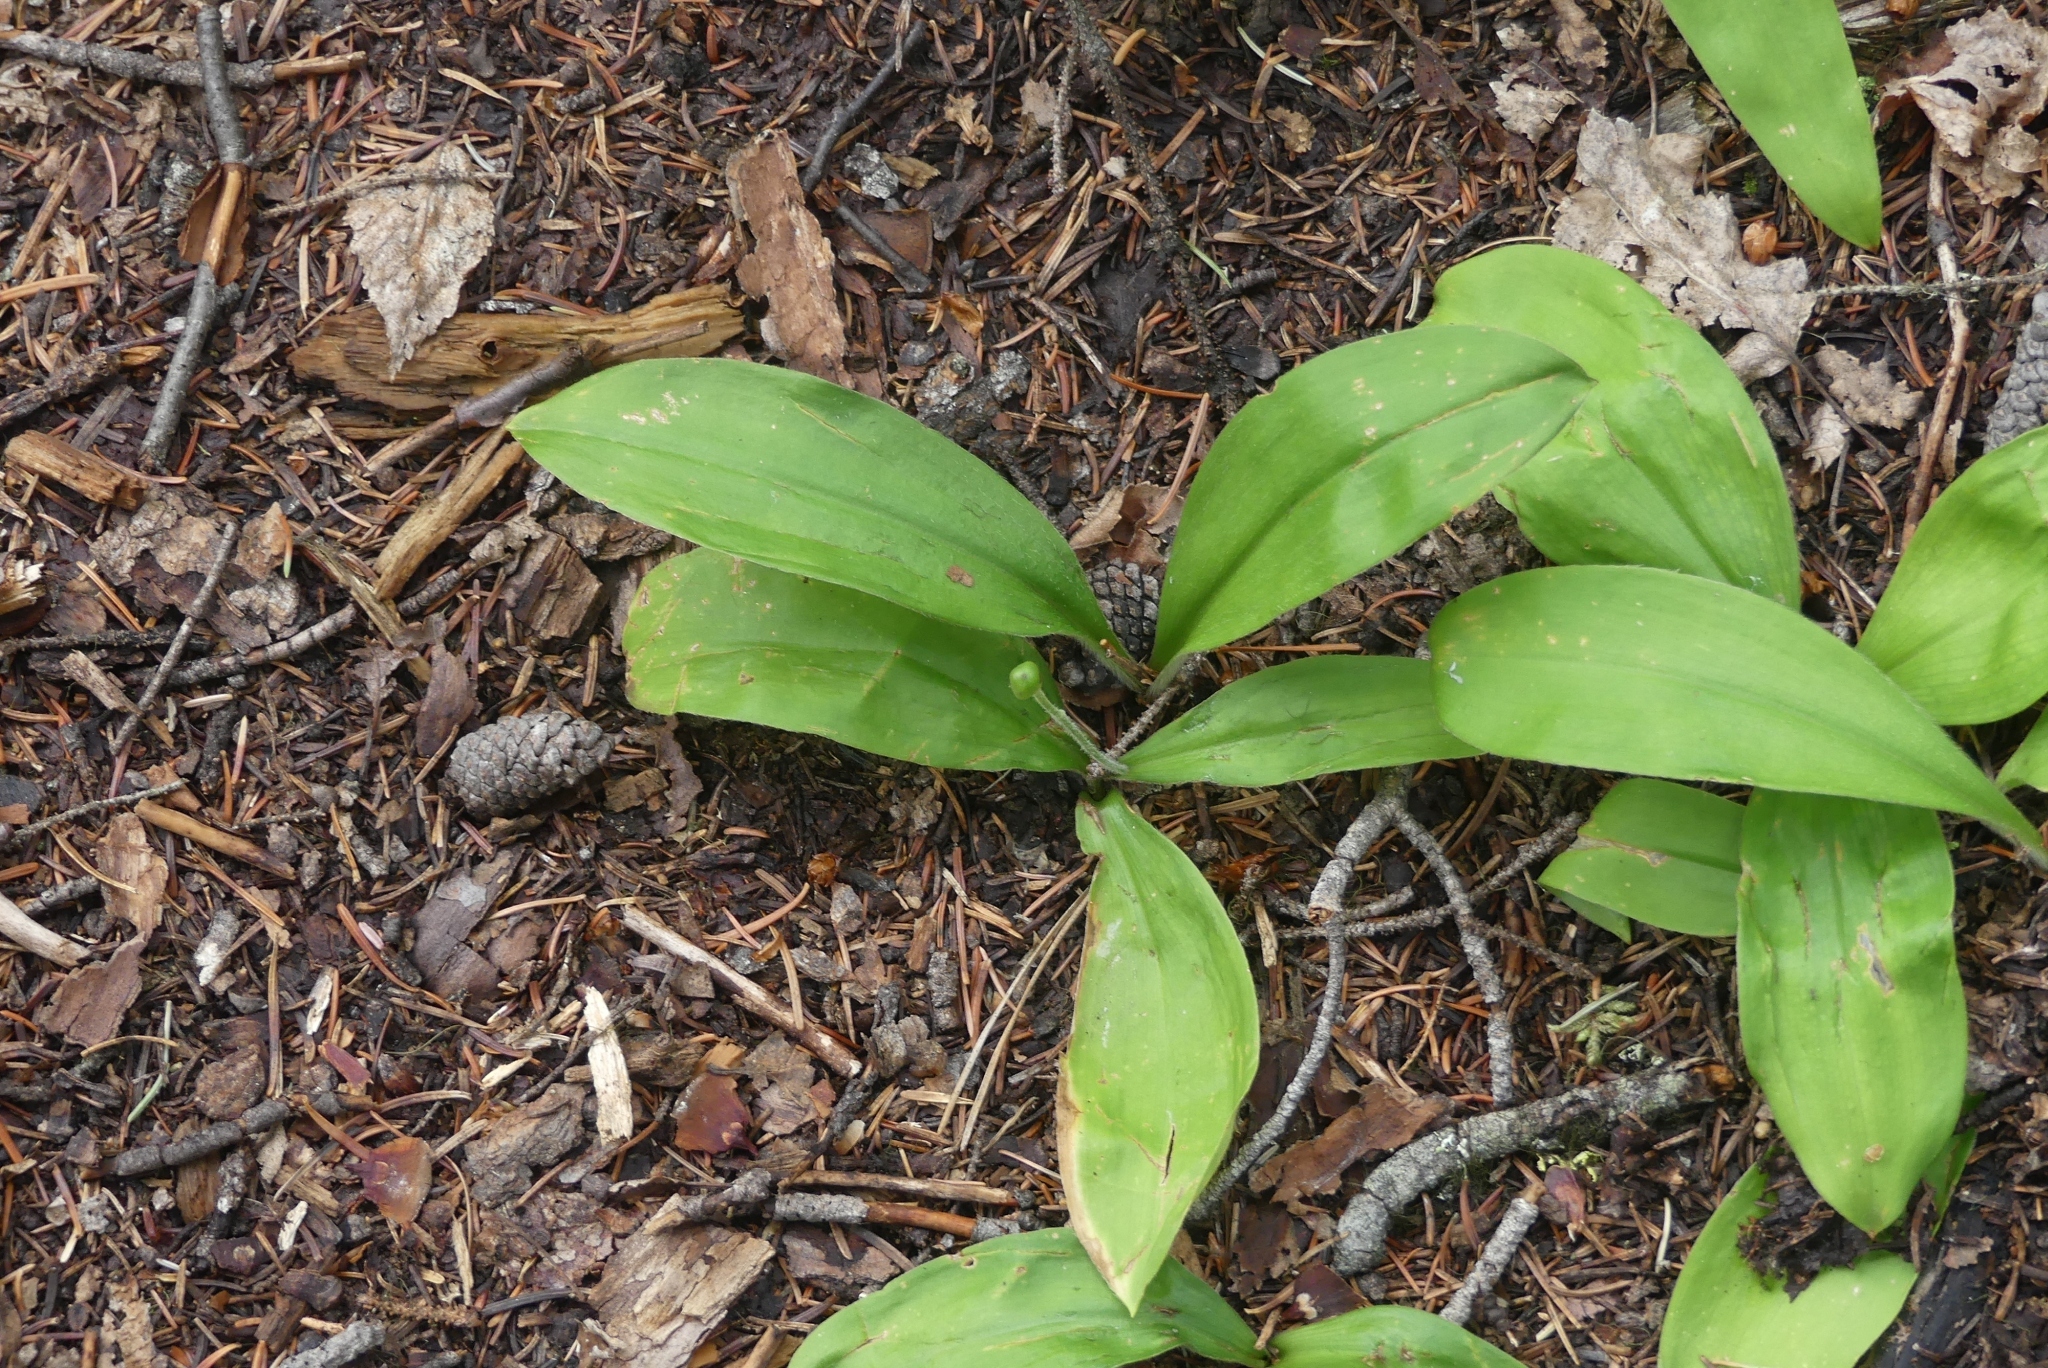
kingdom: Plantae
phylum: Tracheophyta
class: Liliopsida
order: Liliales
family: Liliaceae
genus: Clintonia
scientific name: Clintonia uniflora
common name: Queen's cup
